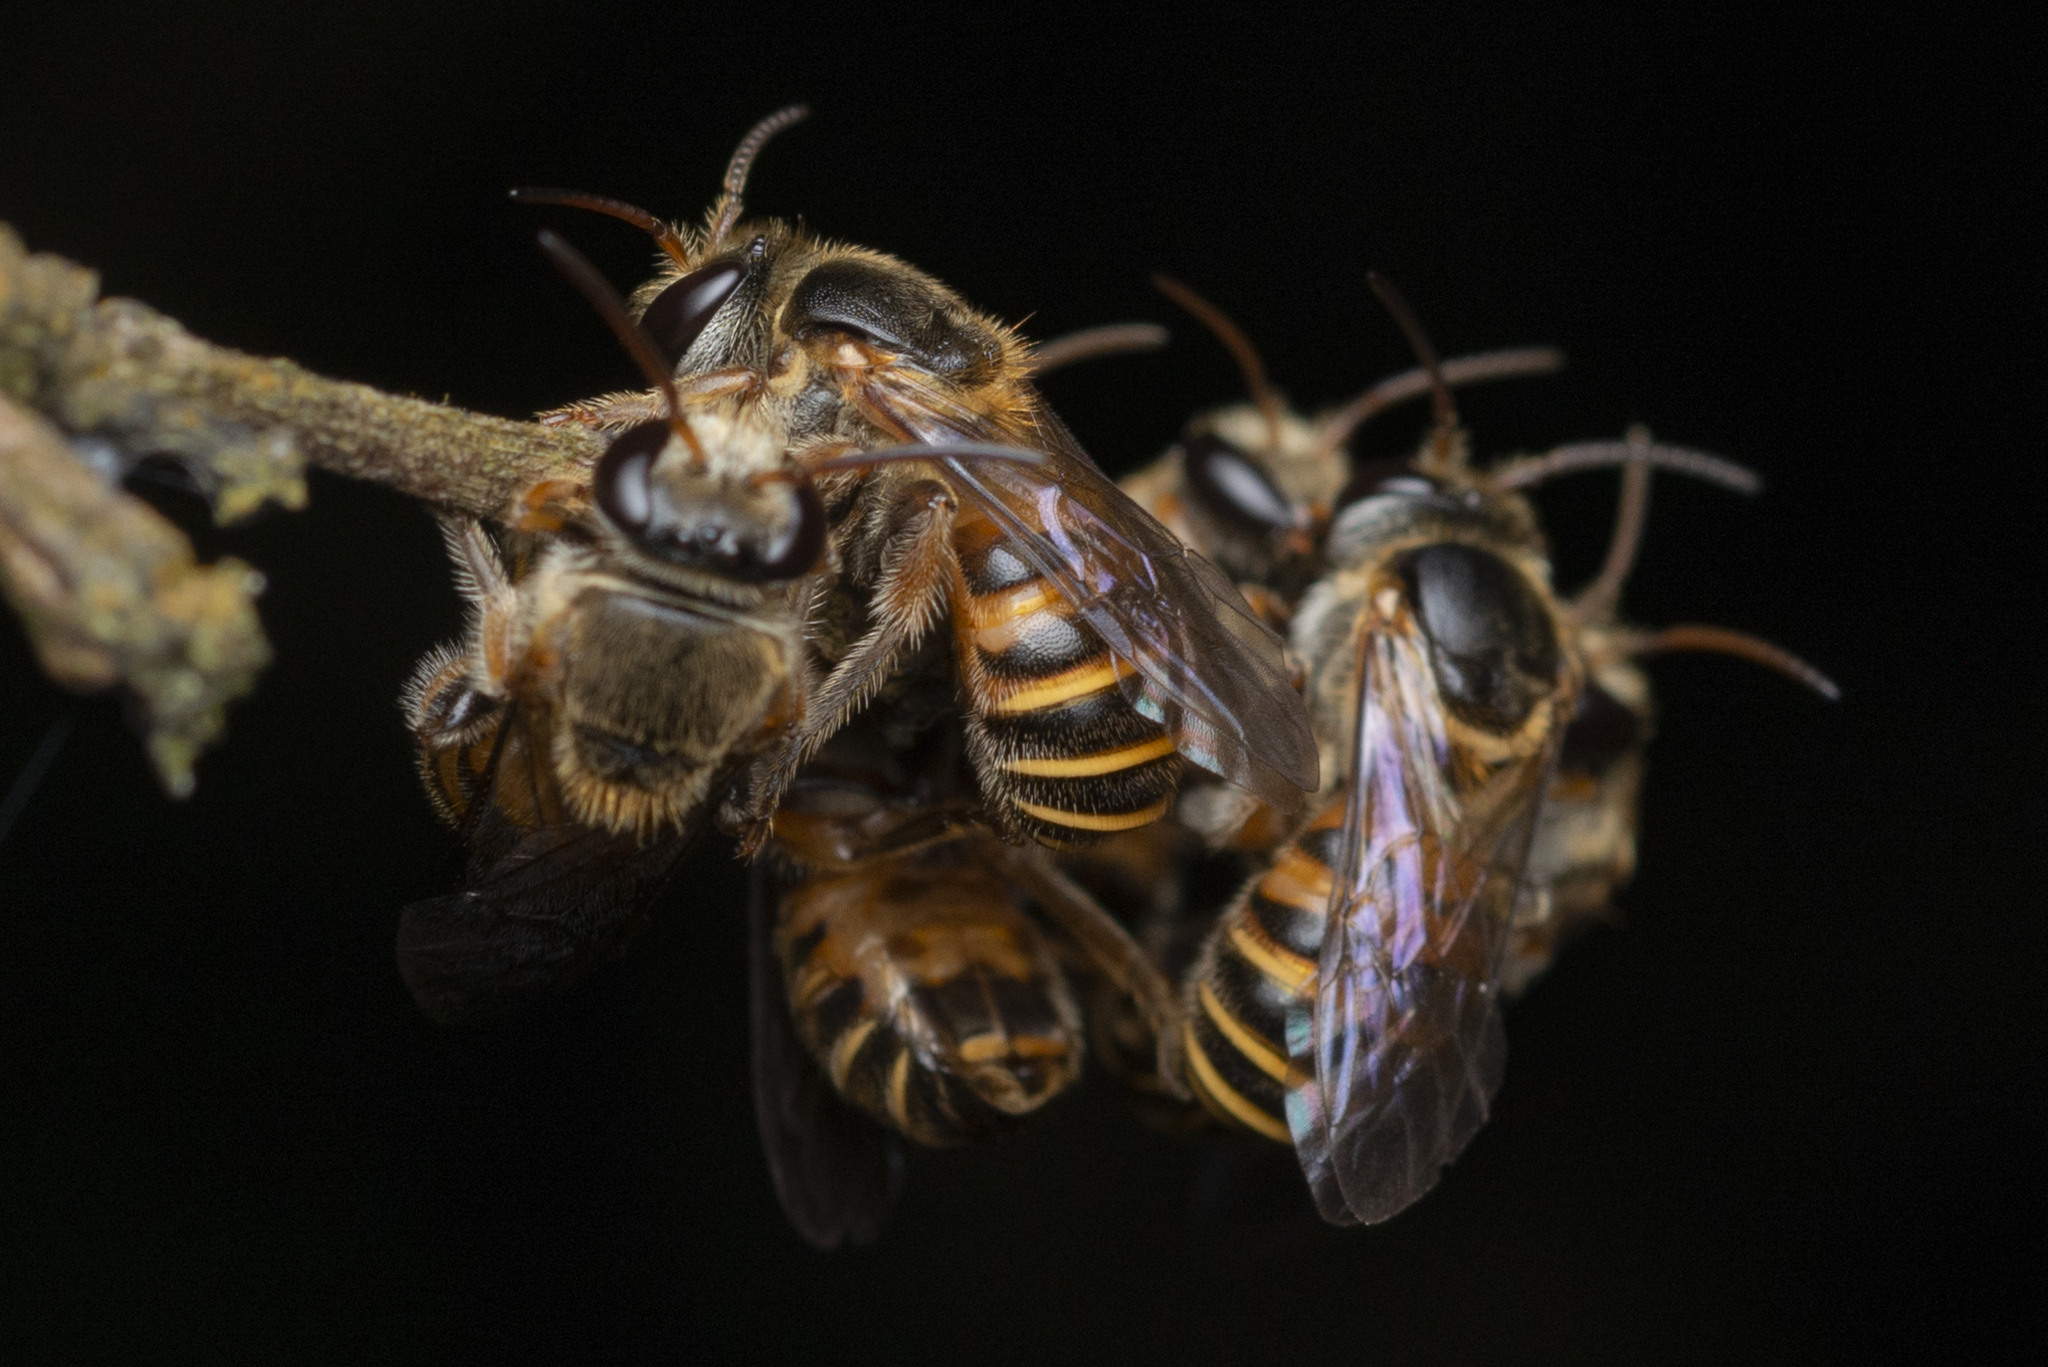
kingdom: Animalia
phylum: Arthropoda
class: Insecta
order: Hymenoptera
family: Halictidae
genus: Nomia
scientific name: Nomia penangensis
